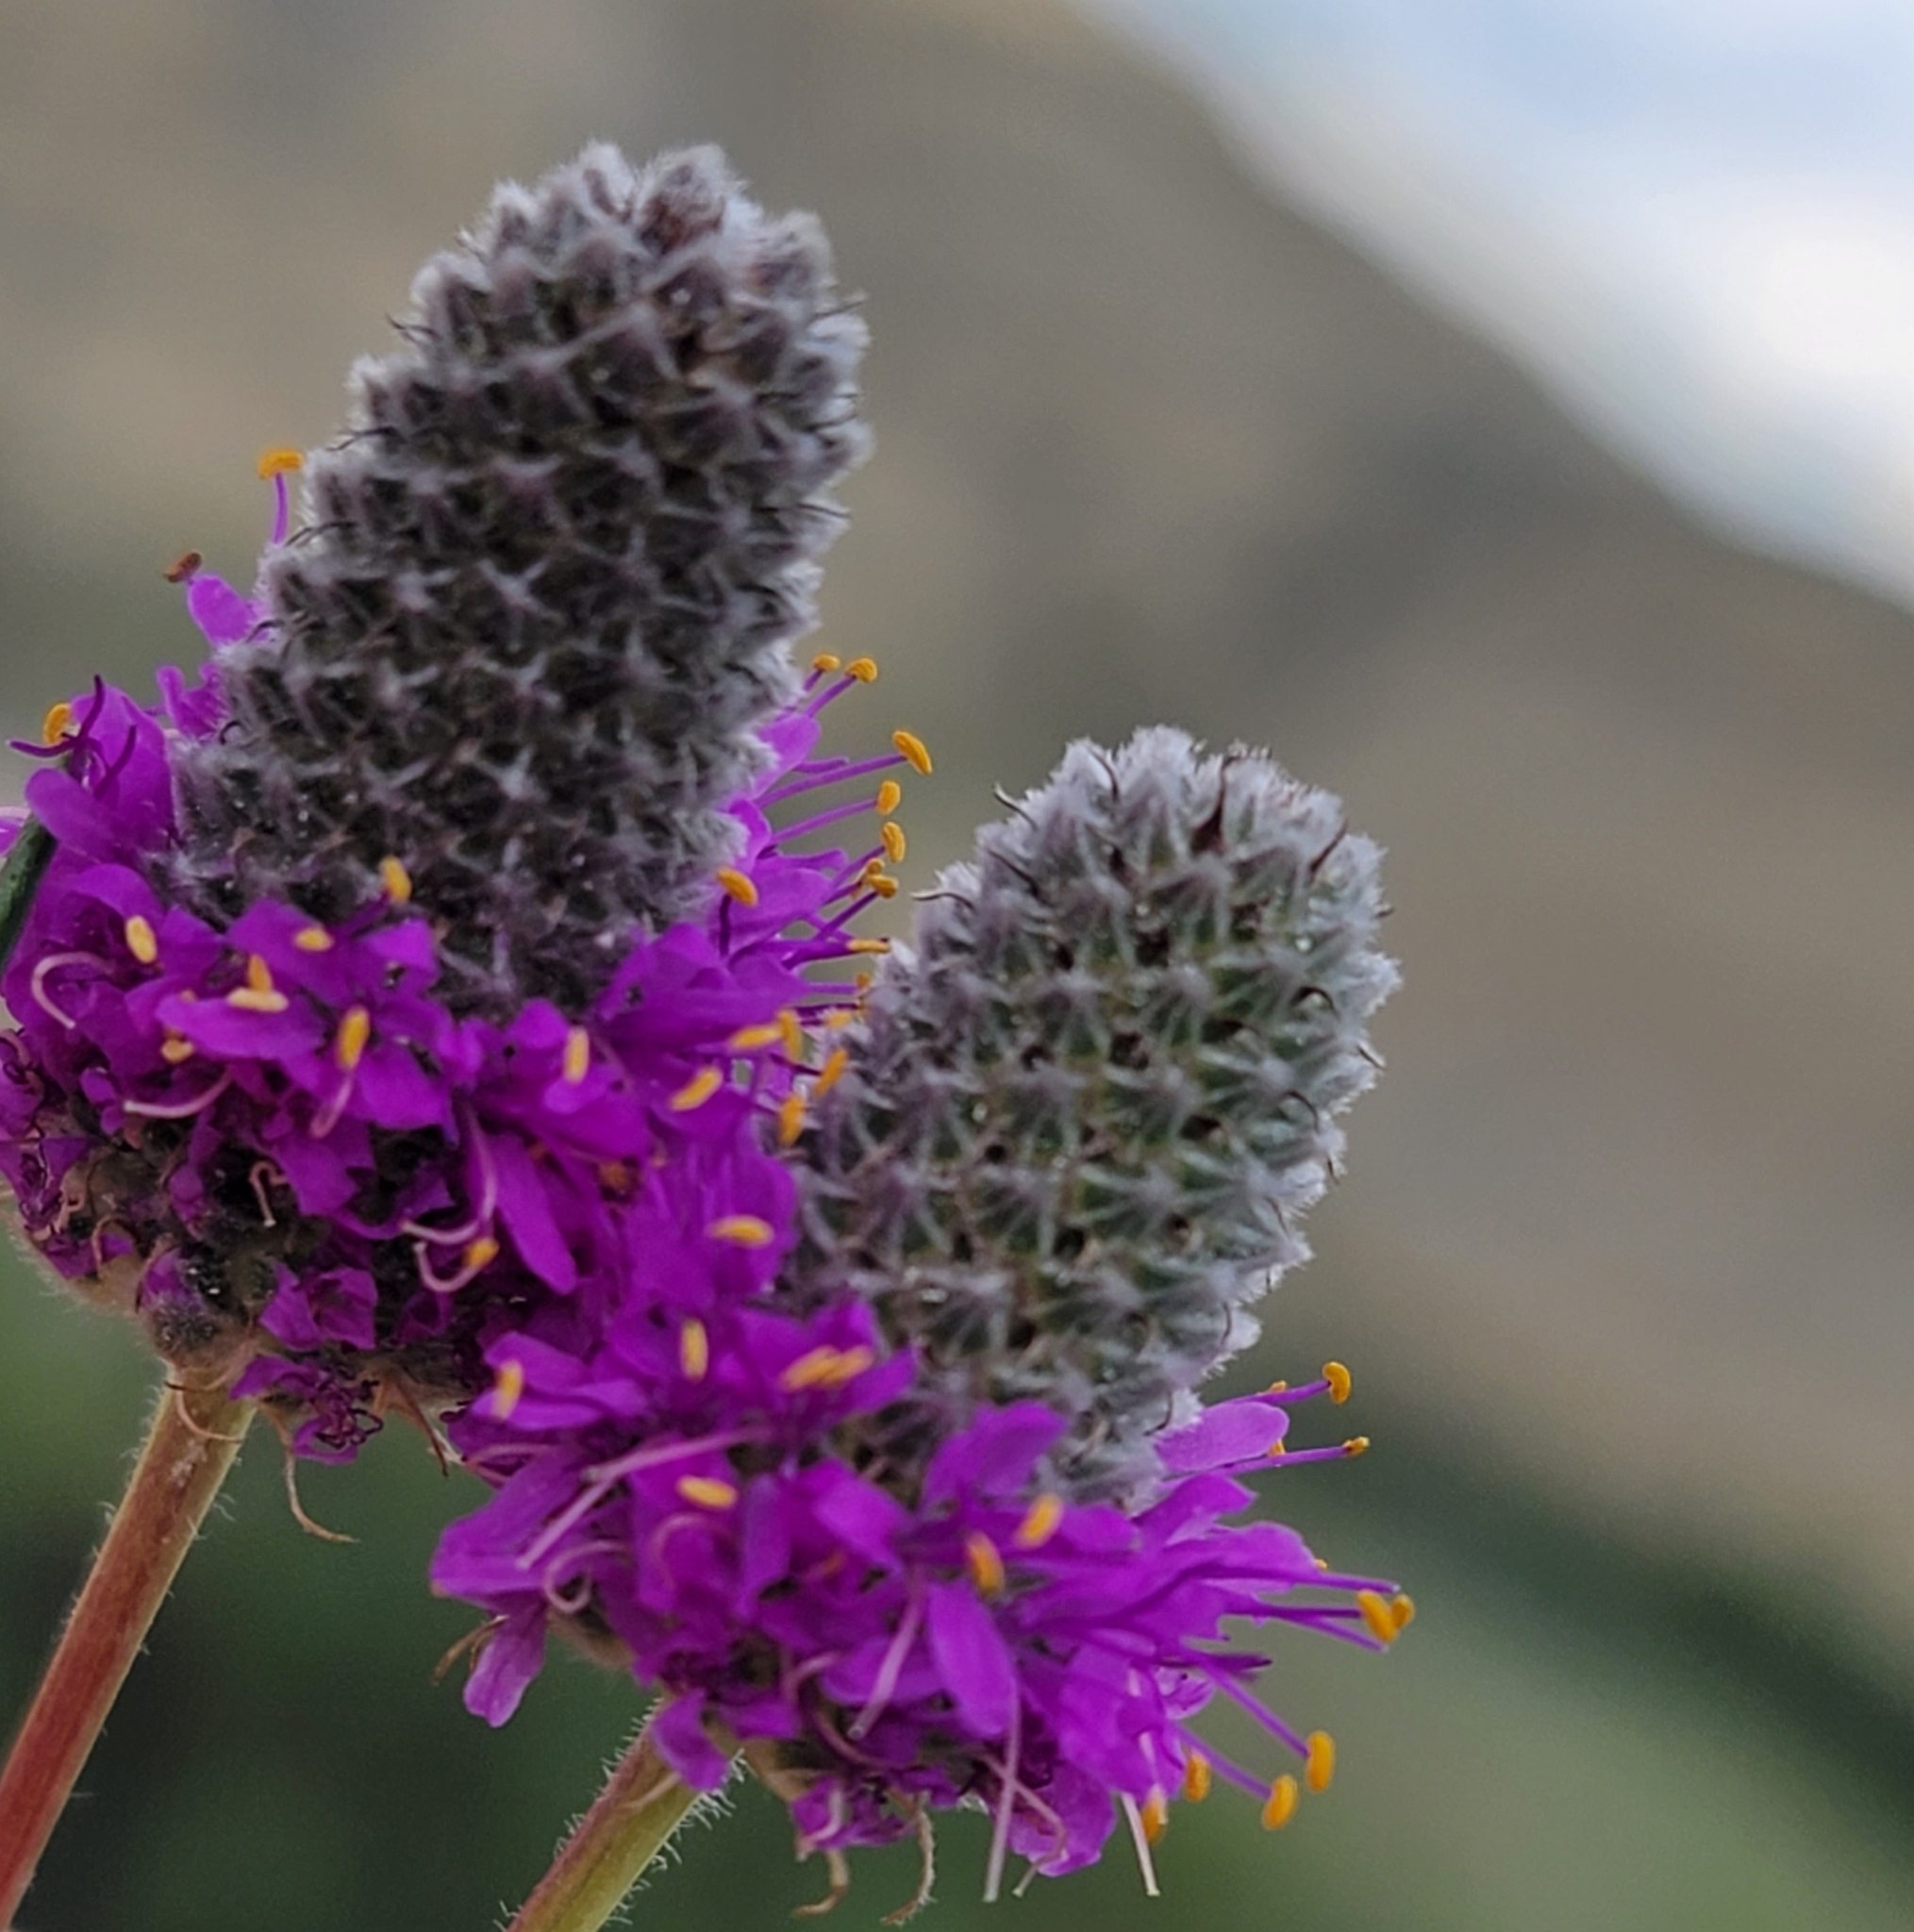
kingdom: Plantae
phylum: Tracheophyta
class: Magnoliopsida
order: Fabales
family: Fabaceae
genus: Dalea
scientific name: Dalea purpurea
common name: Purple prairie-clover
